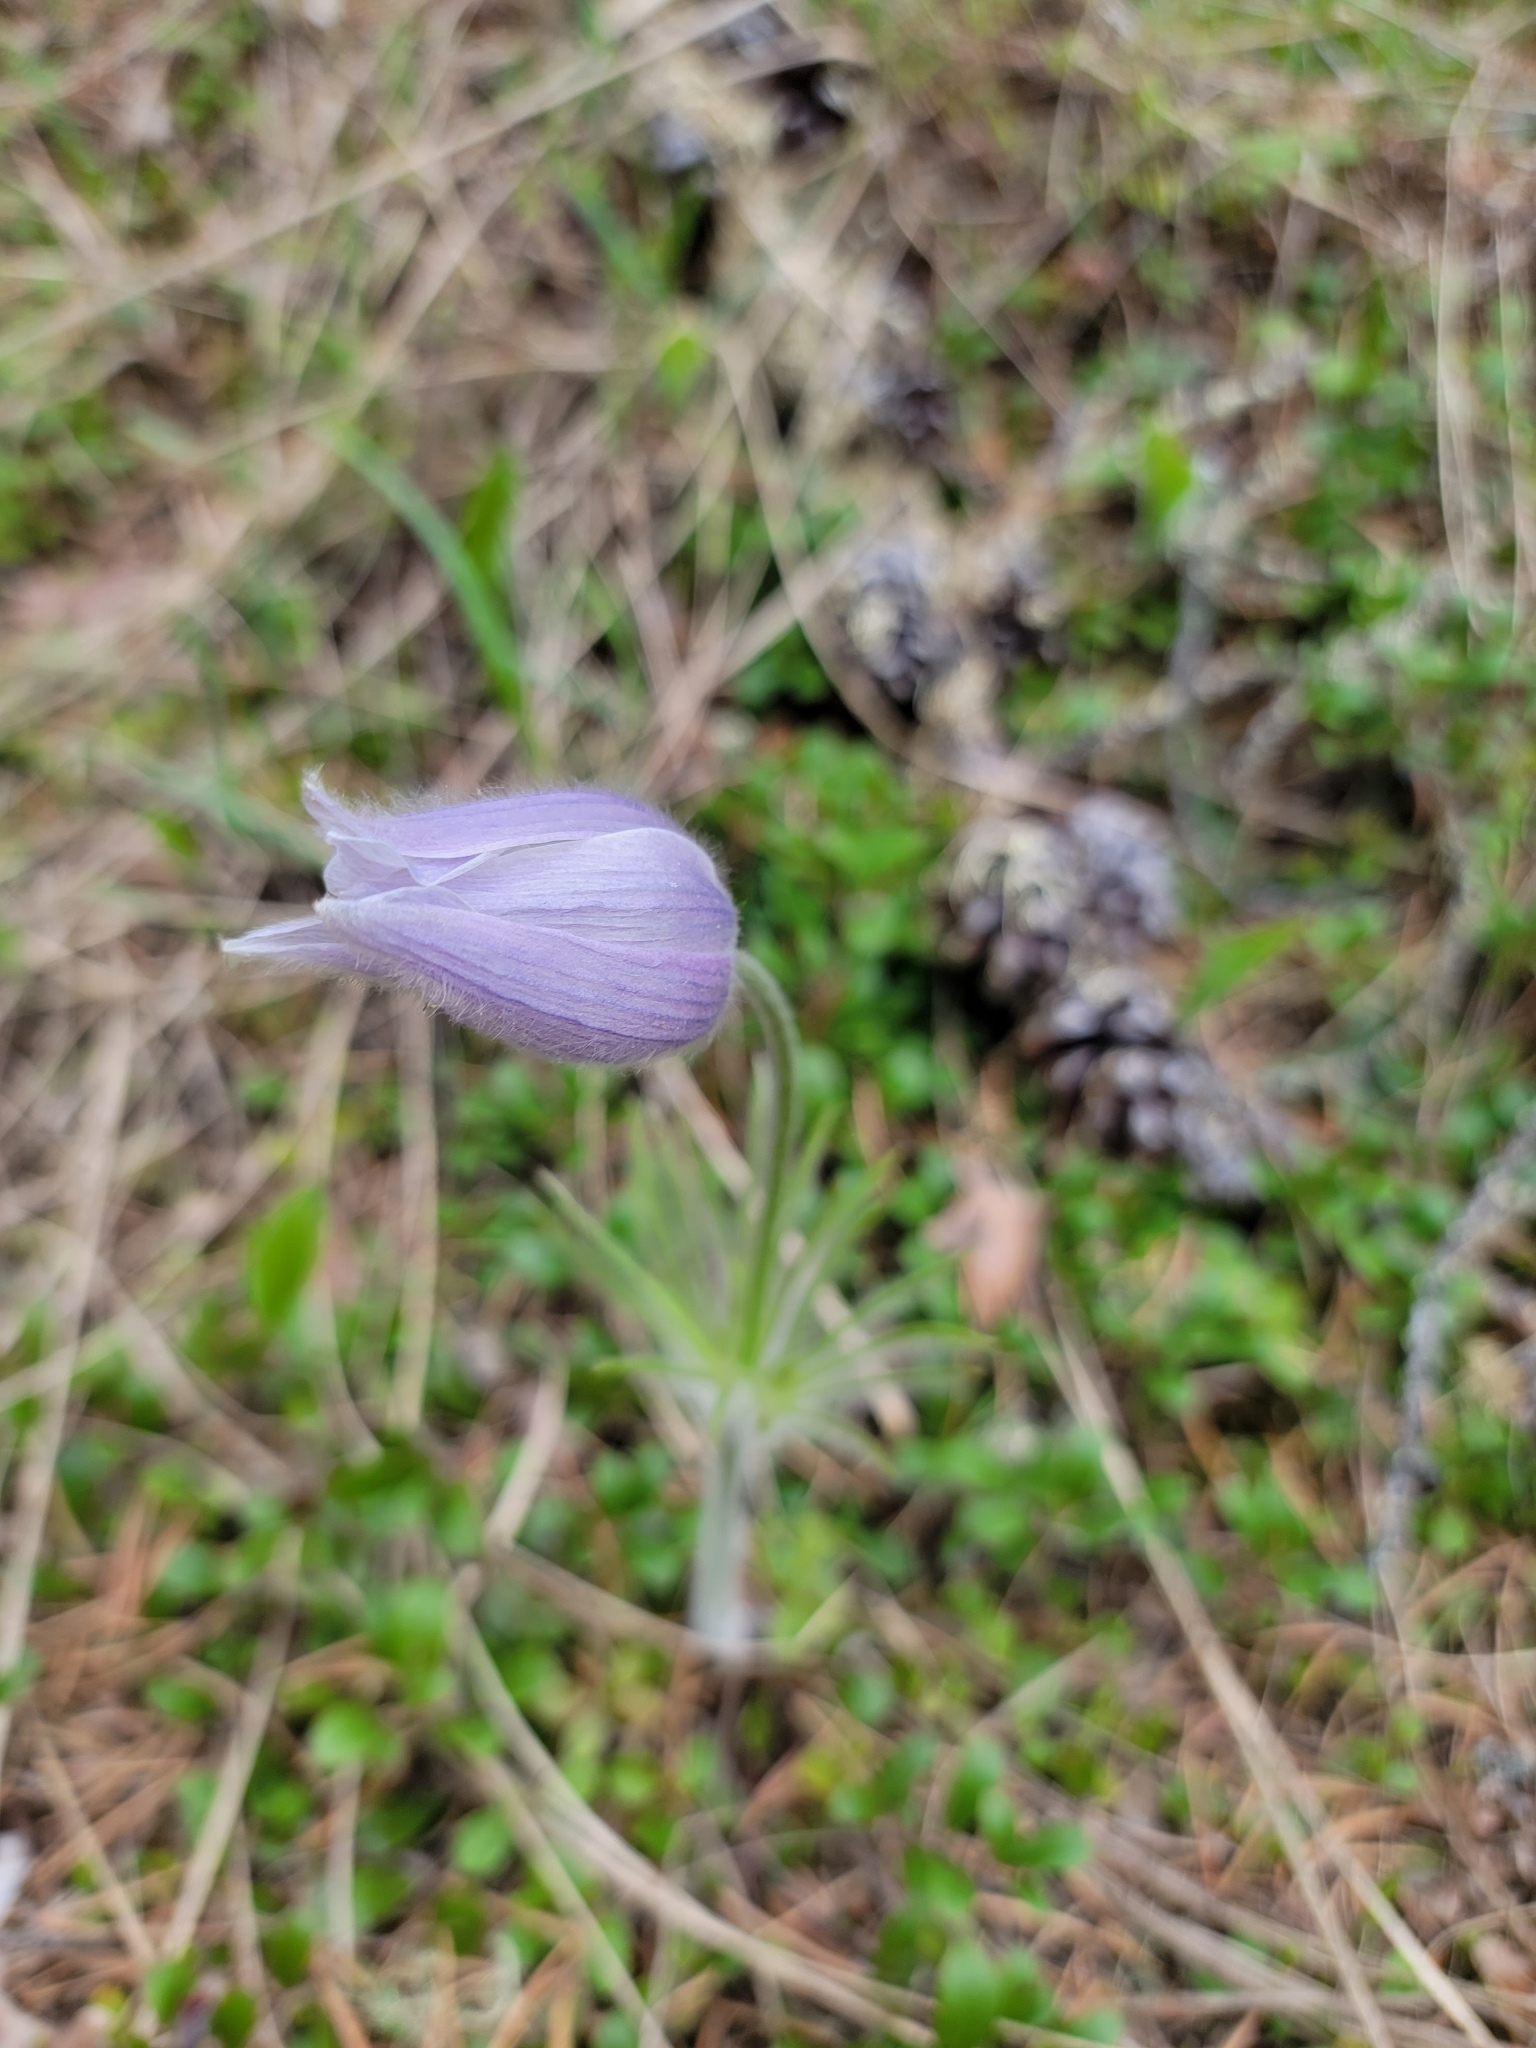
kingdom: Plantae
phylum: Tracheophyta
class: Magnoliopsida
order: Ranunculales
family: Ranunculaceae
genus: Pulsatilla
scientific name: Pulsatilla nuttalliana
